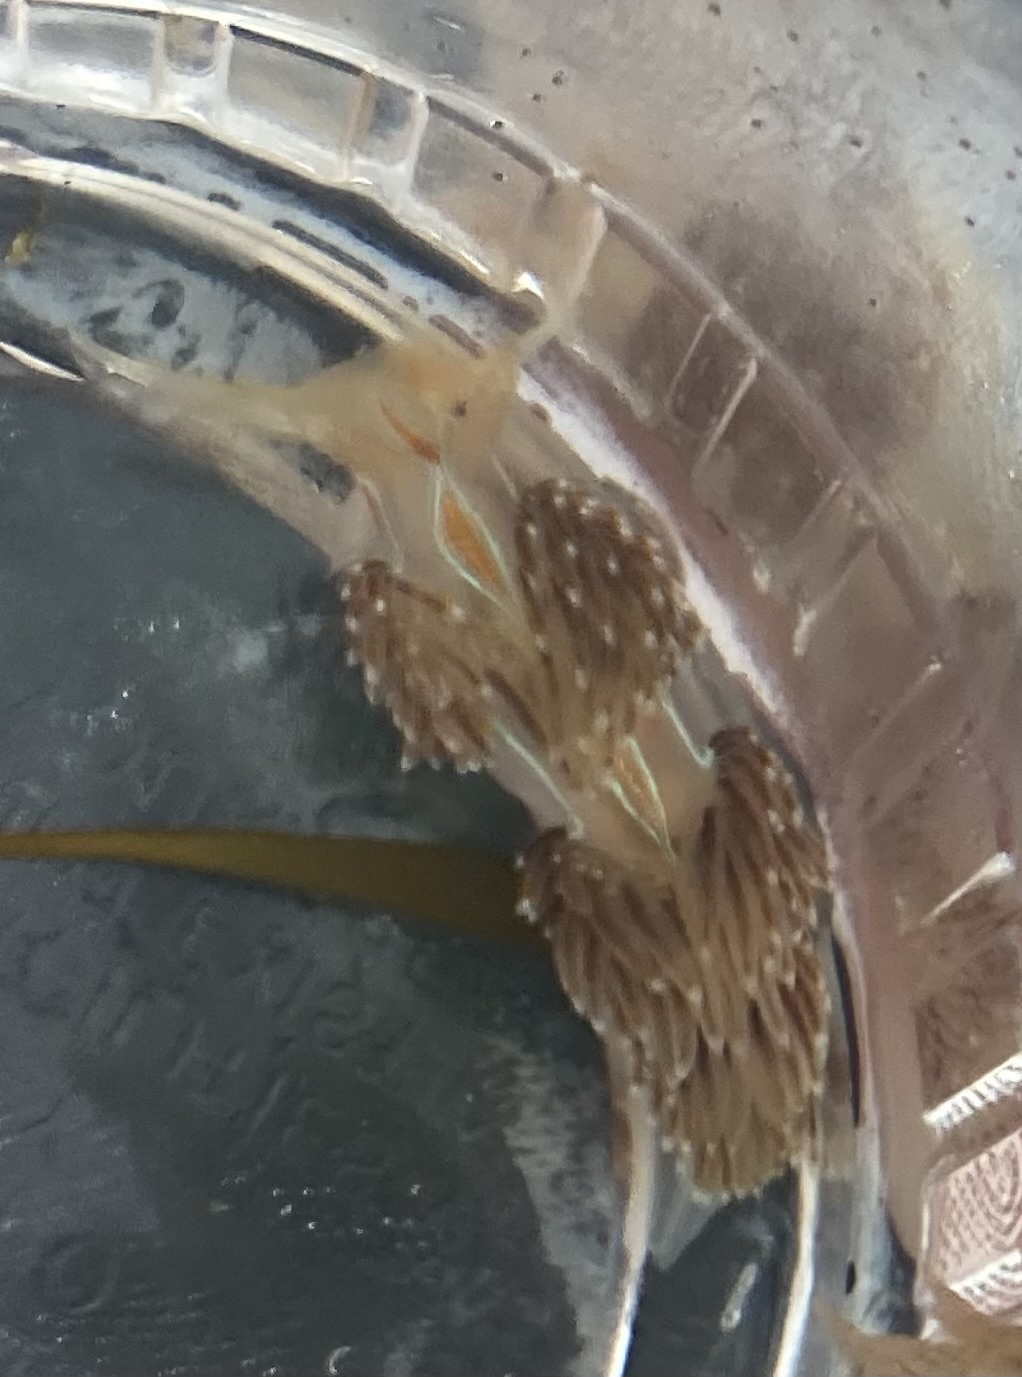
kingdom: Animalia
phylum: Mollusca
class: Gastropoda
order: Nudibranchia
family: Myrrhinidae
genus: Hermissenda
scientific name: Hermissenda opalescens
